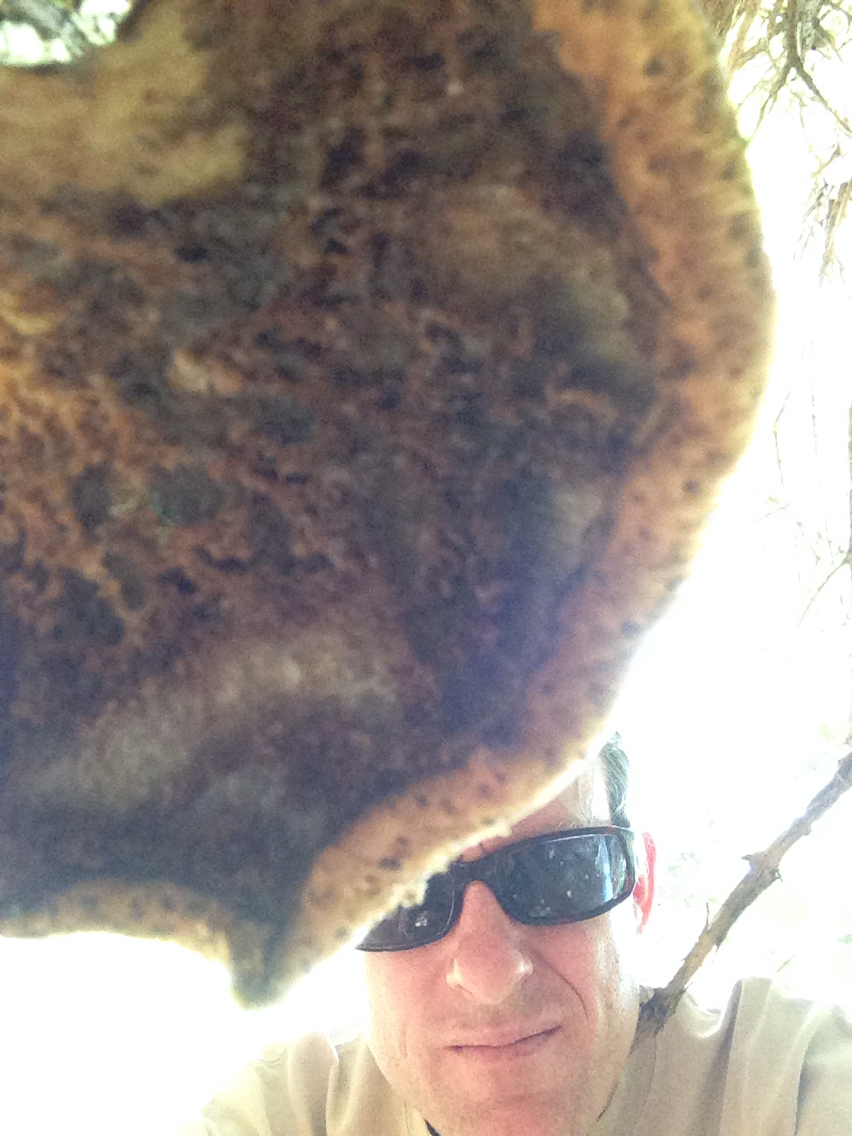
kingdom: Fungi
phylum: Basidiomycota
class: Agaricomycetes
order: Polyporales
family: Polyporaceae
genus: Cerioporus
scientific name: Cerioporus squamosus
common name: Dryad's saddle
